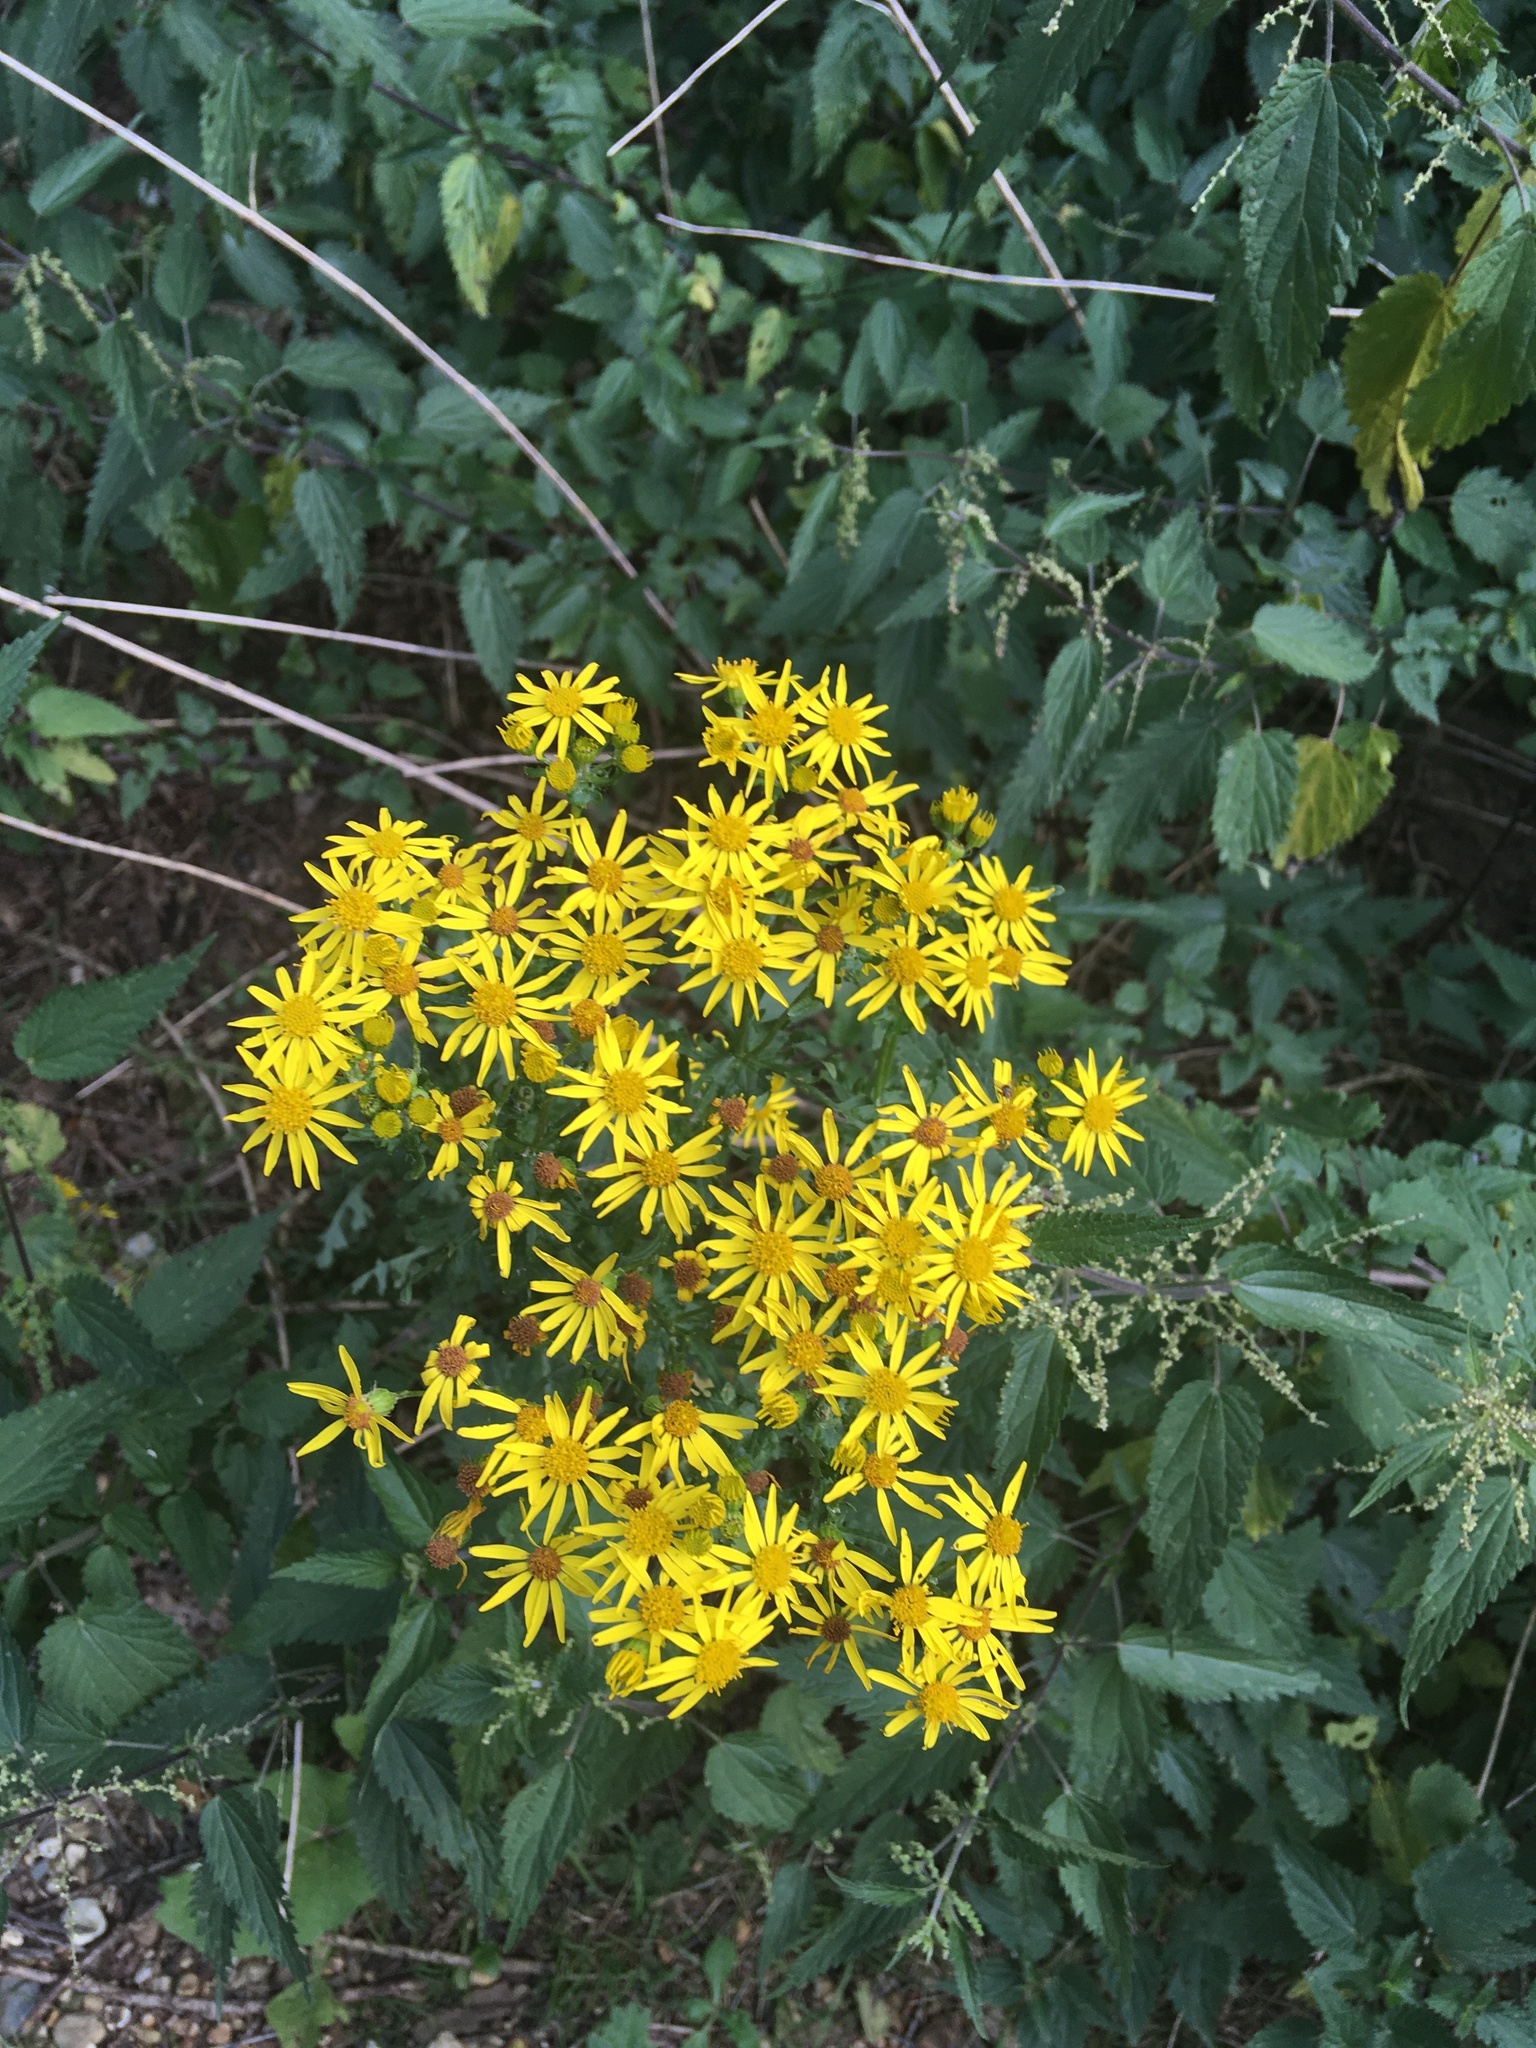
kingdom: Plantae
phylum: Tracheophyta
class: Magnoliopsida
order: Asterales
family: Asteraceae
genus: Jacobaea
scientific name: Jacobaea vulgaris
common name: Stinking willie
